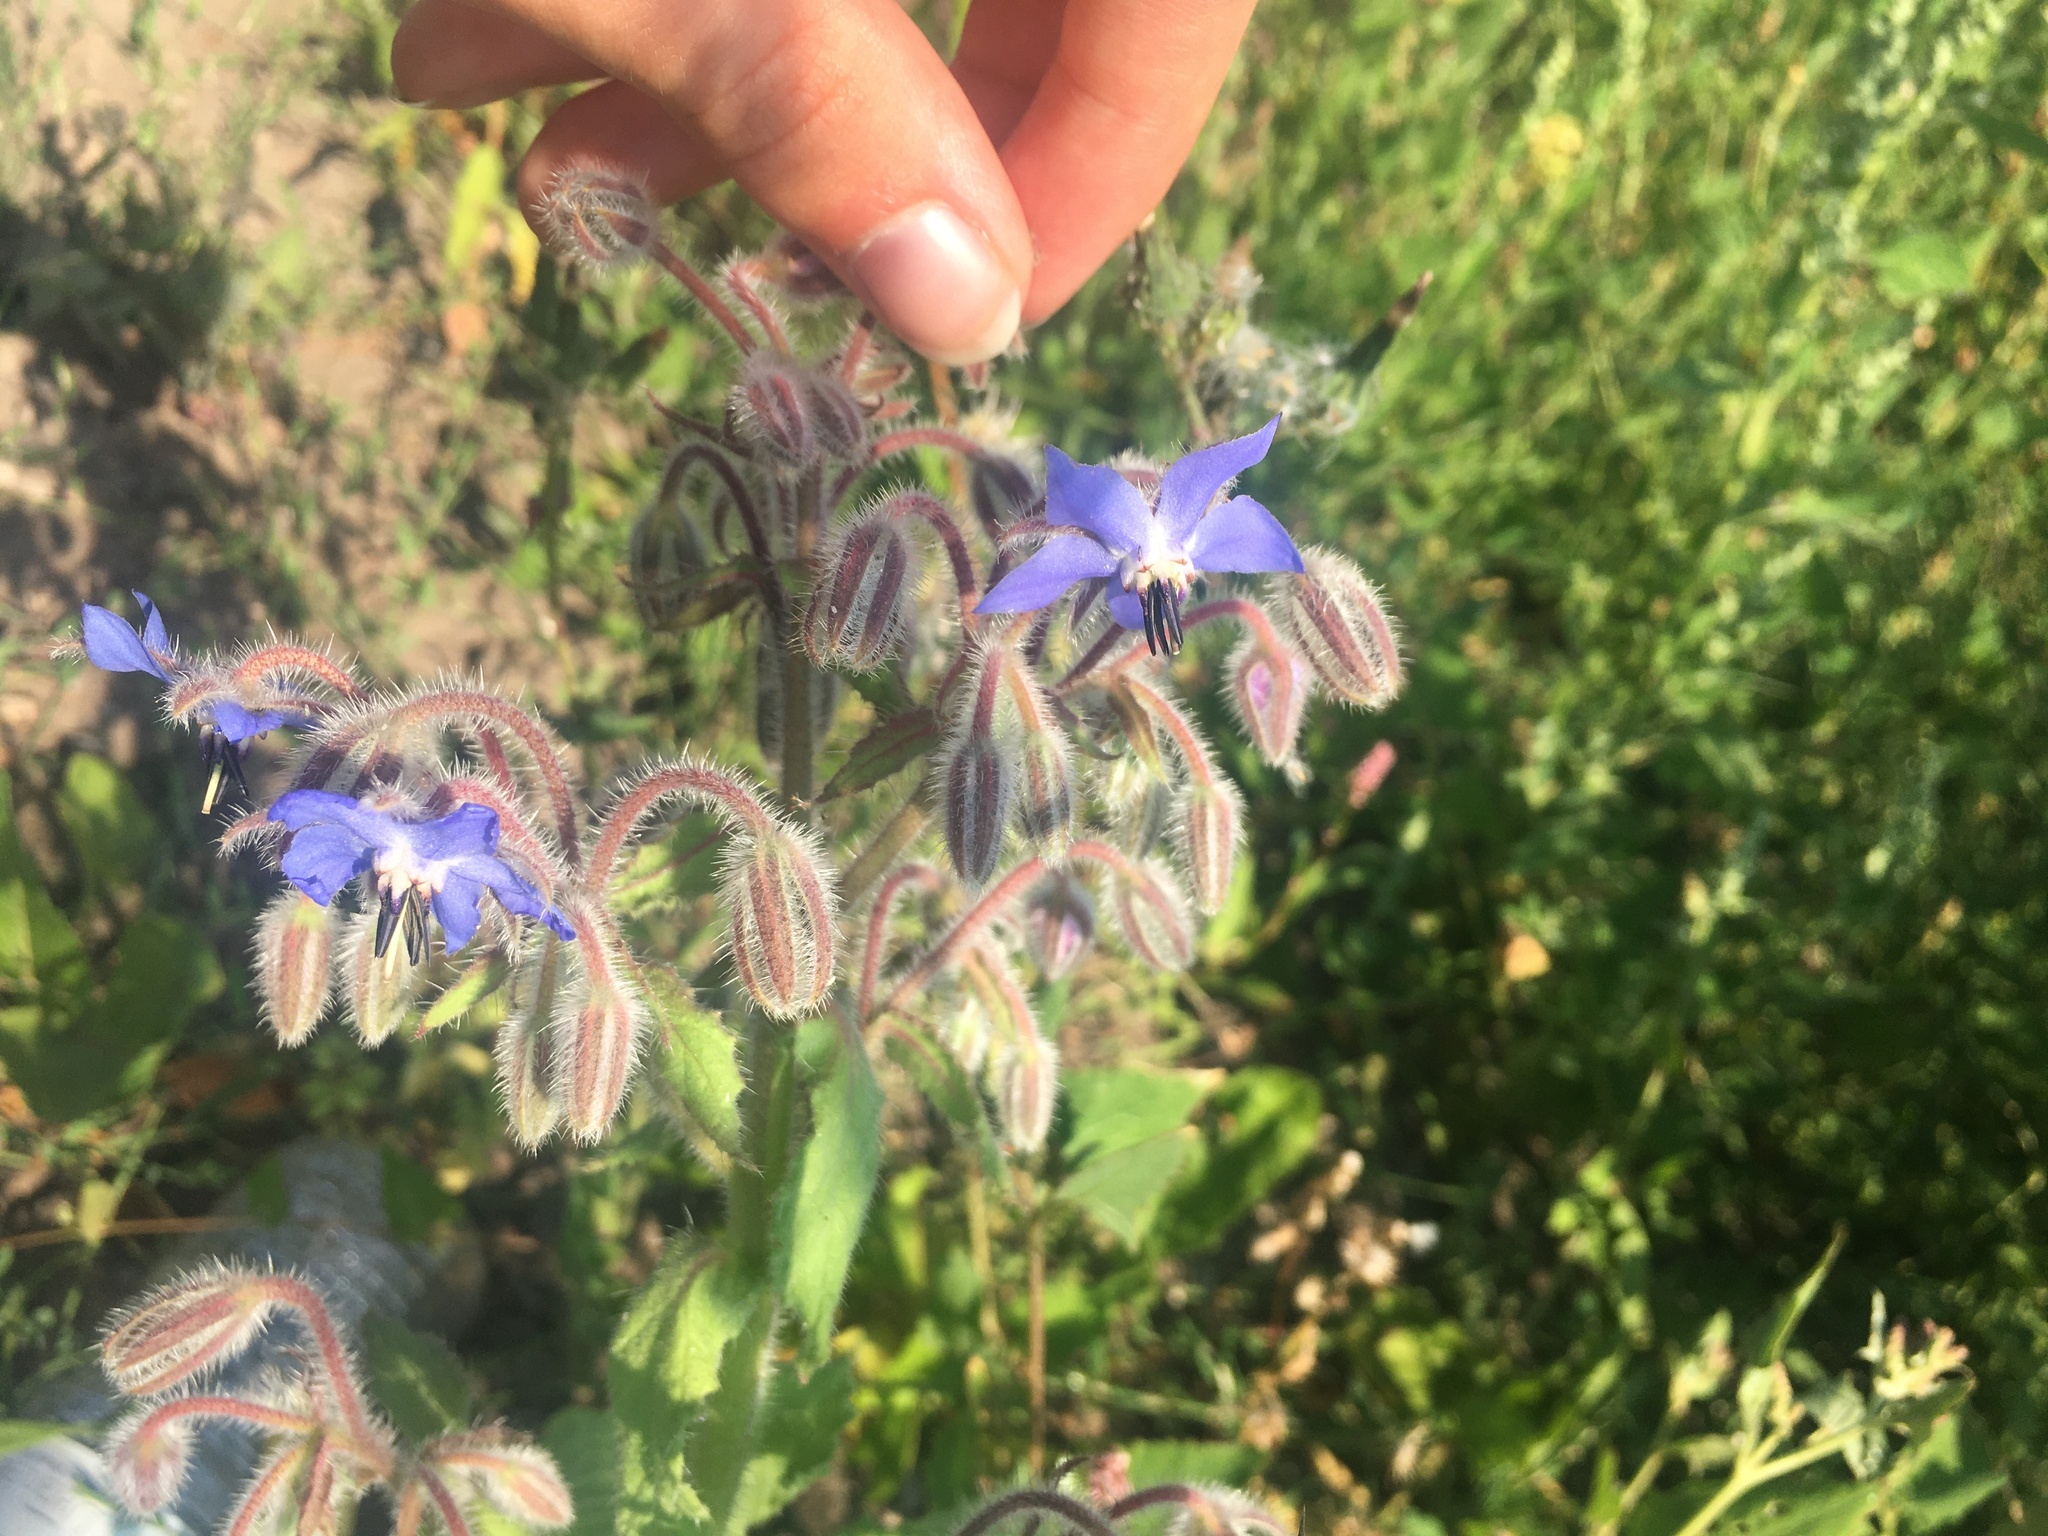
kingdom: Plantae
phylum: Tracheophyta
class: Magnoliopsida
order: Boraginales
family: Boraginaceae
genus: Borago
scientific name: Borago officinalis
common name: Borage
